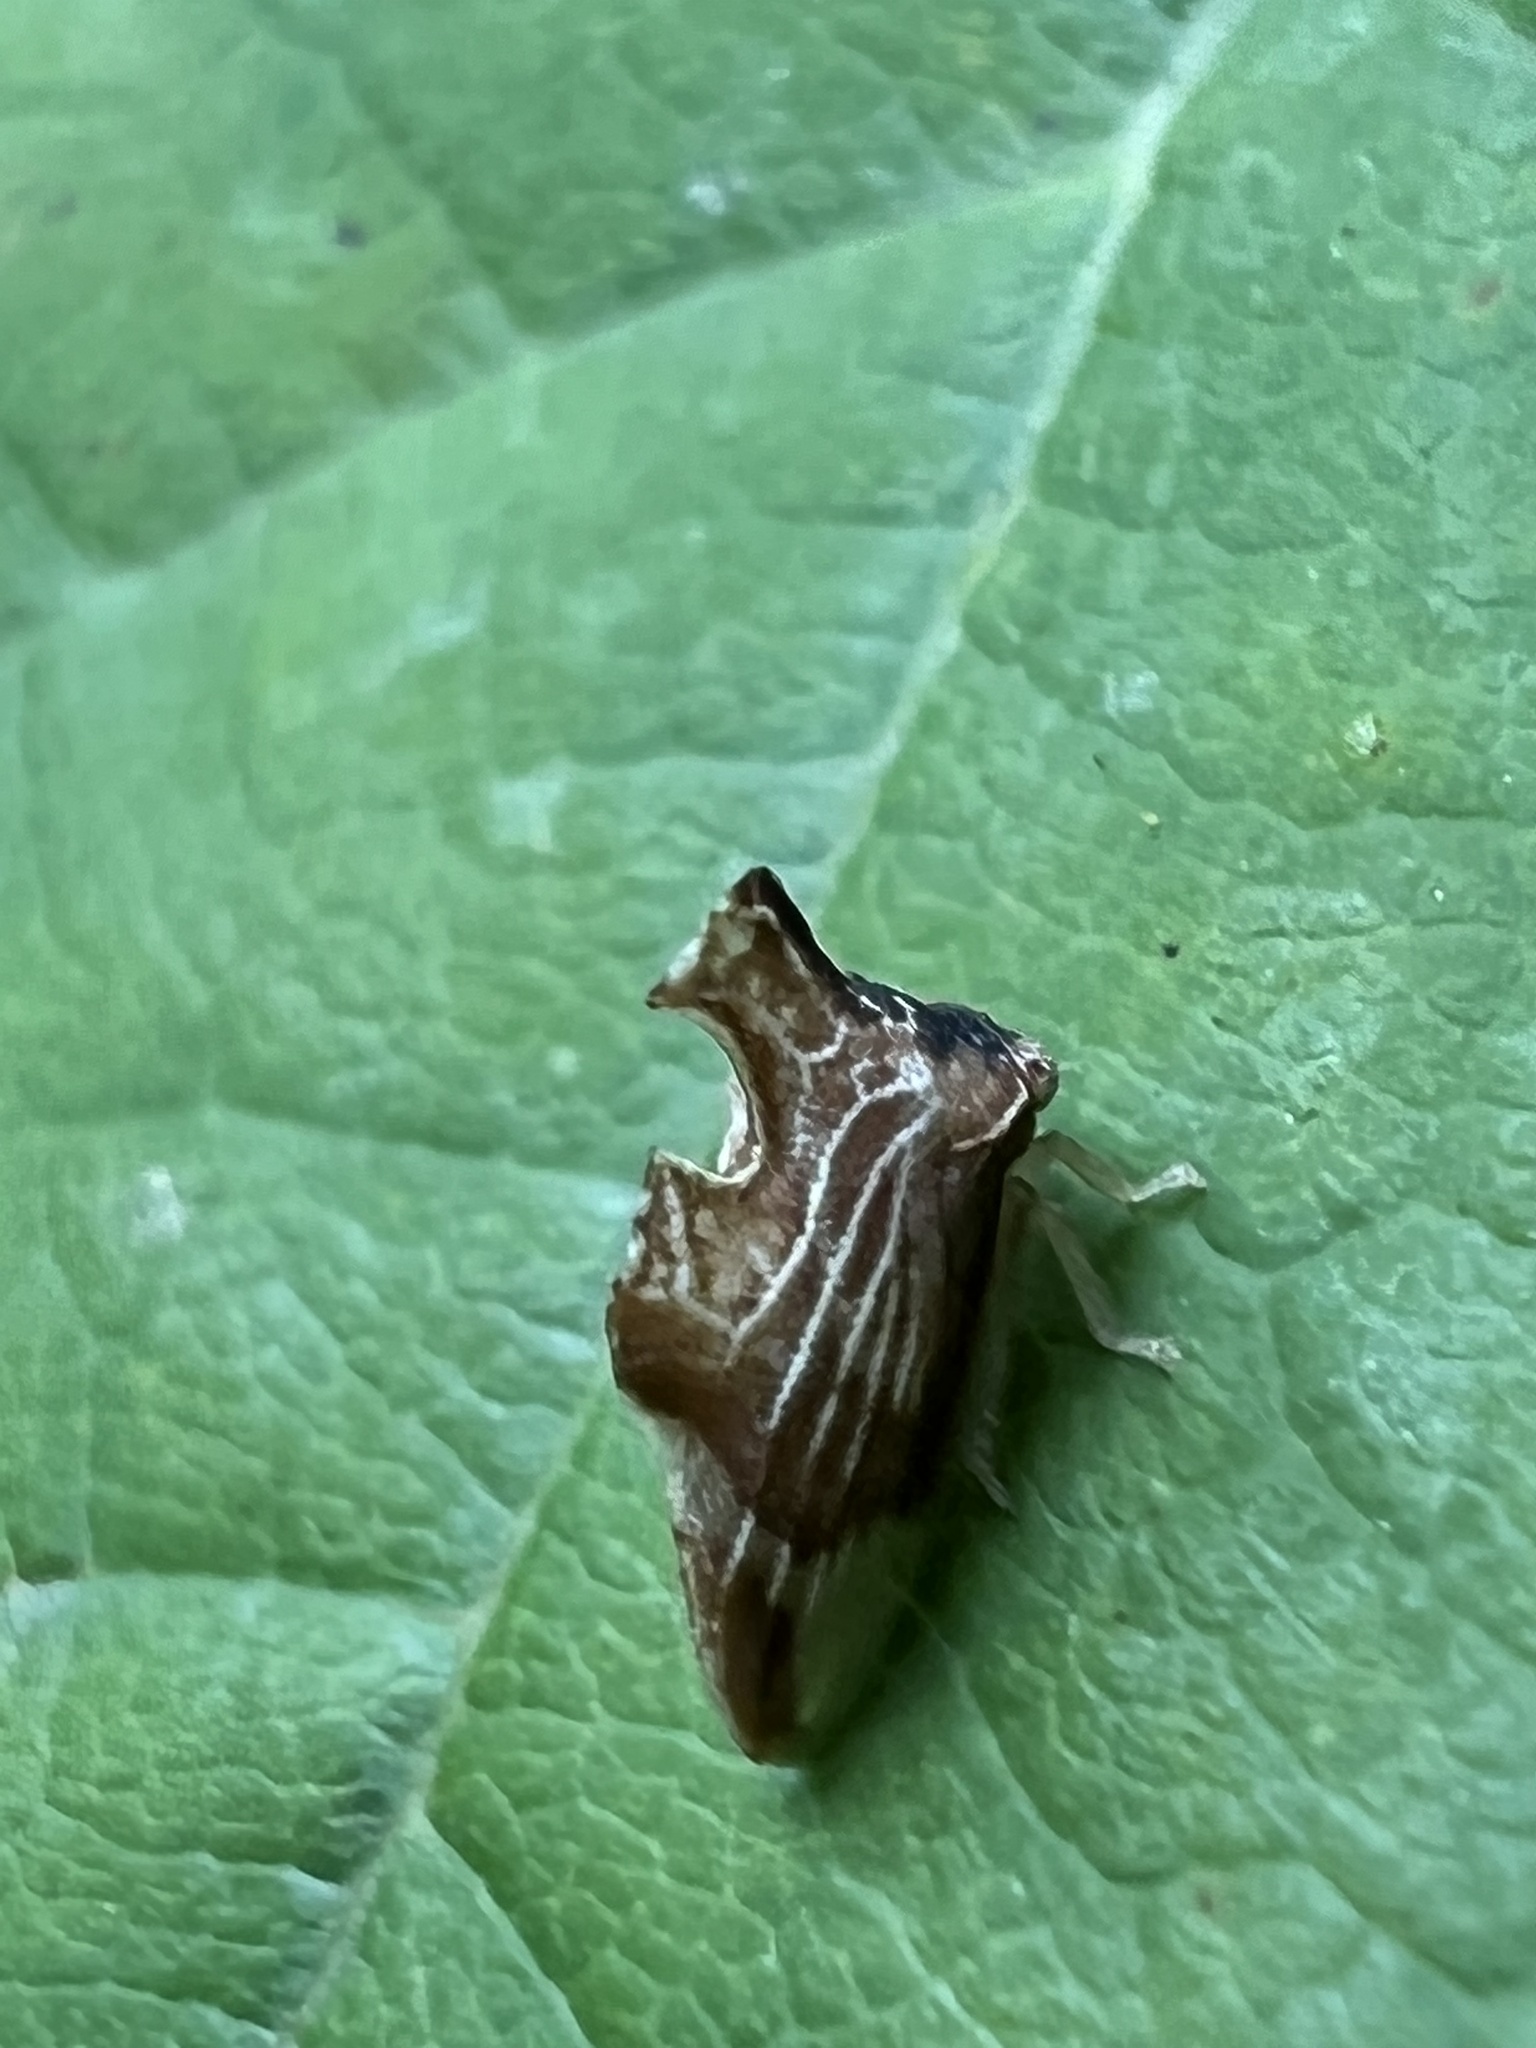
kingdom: Animalia
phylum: Arthropoda
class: Insecta
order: Hemiptera
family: Membracidae
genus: Entylia
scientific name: Entylia carinata
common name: Keeled treehopper
